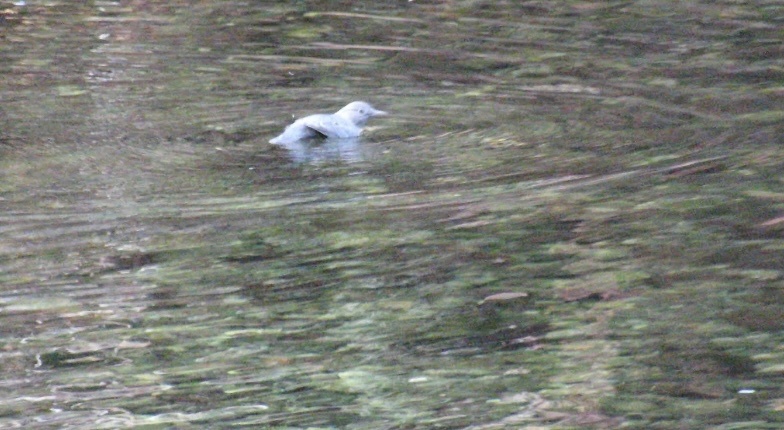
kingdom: Animalia
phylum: Chordata
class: Aves
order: Passeriformes
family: Cinclidae
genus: Cinclus
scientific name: Cinclus mexicanus
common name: American dipper
